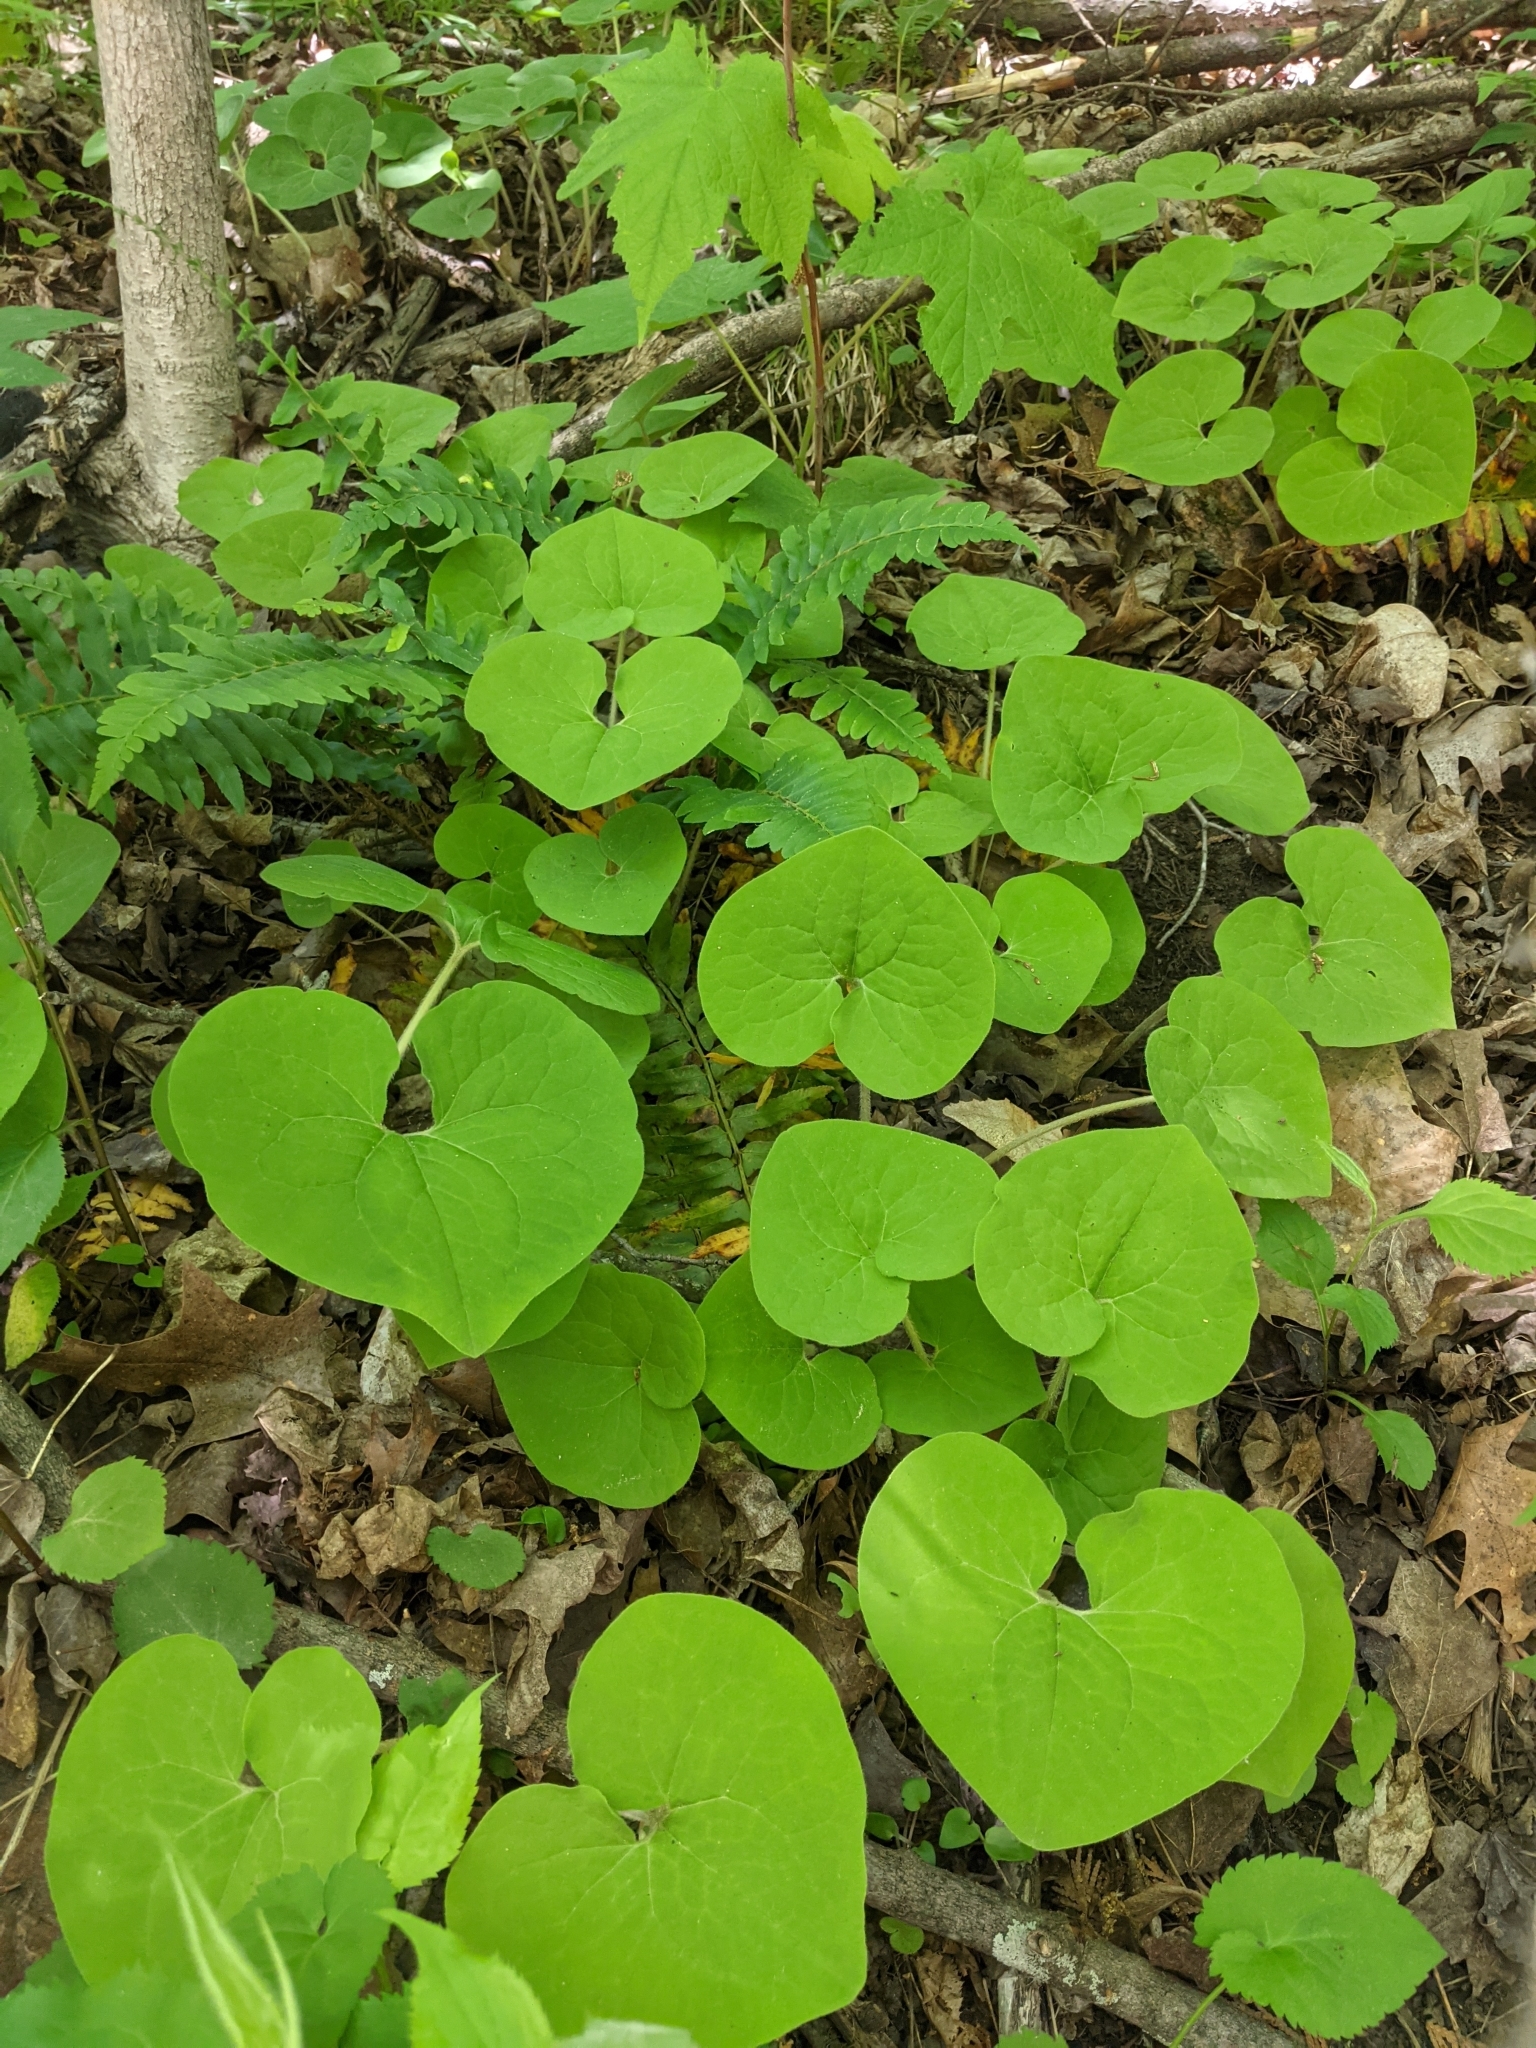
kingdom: Plantae
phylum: Tracheophyta
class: Magnoliopsida
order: Piperales
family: Aristolochiaceae
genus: Asarum
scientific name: Asarum canadense
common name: Wild ginger
